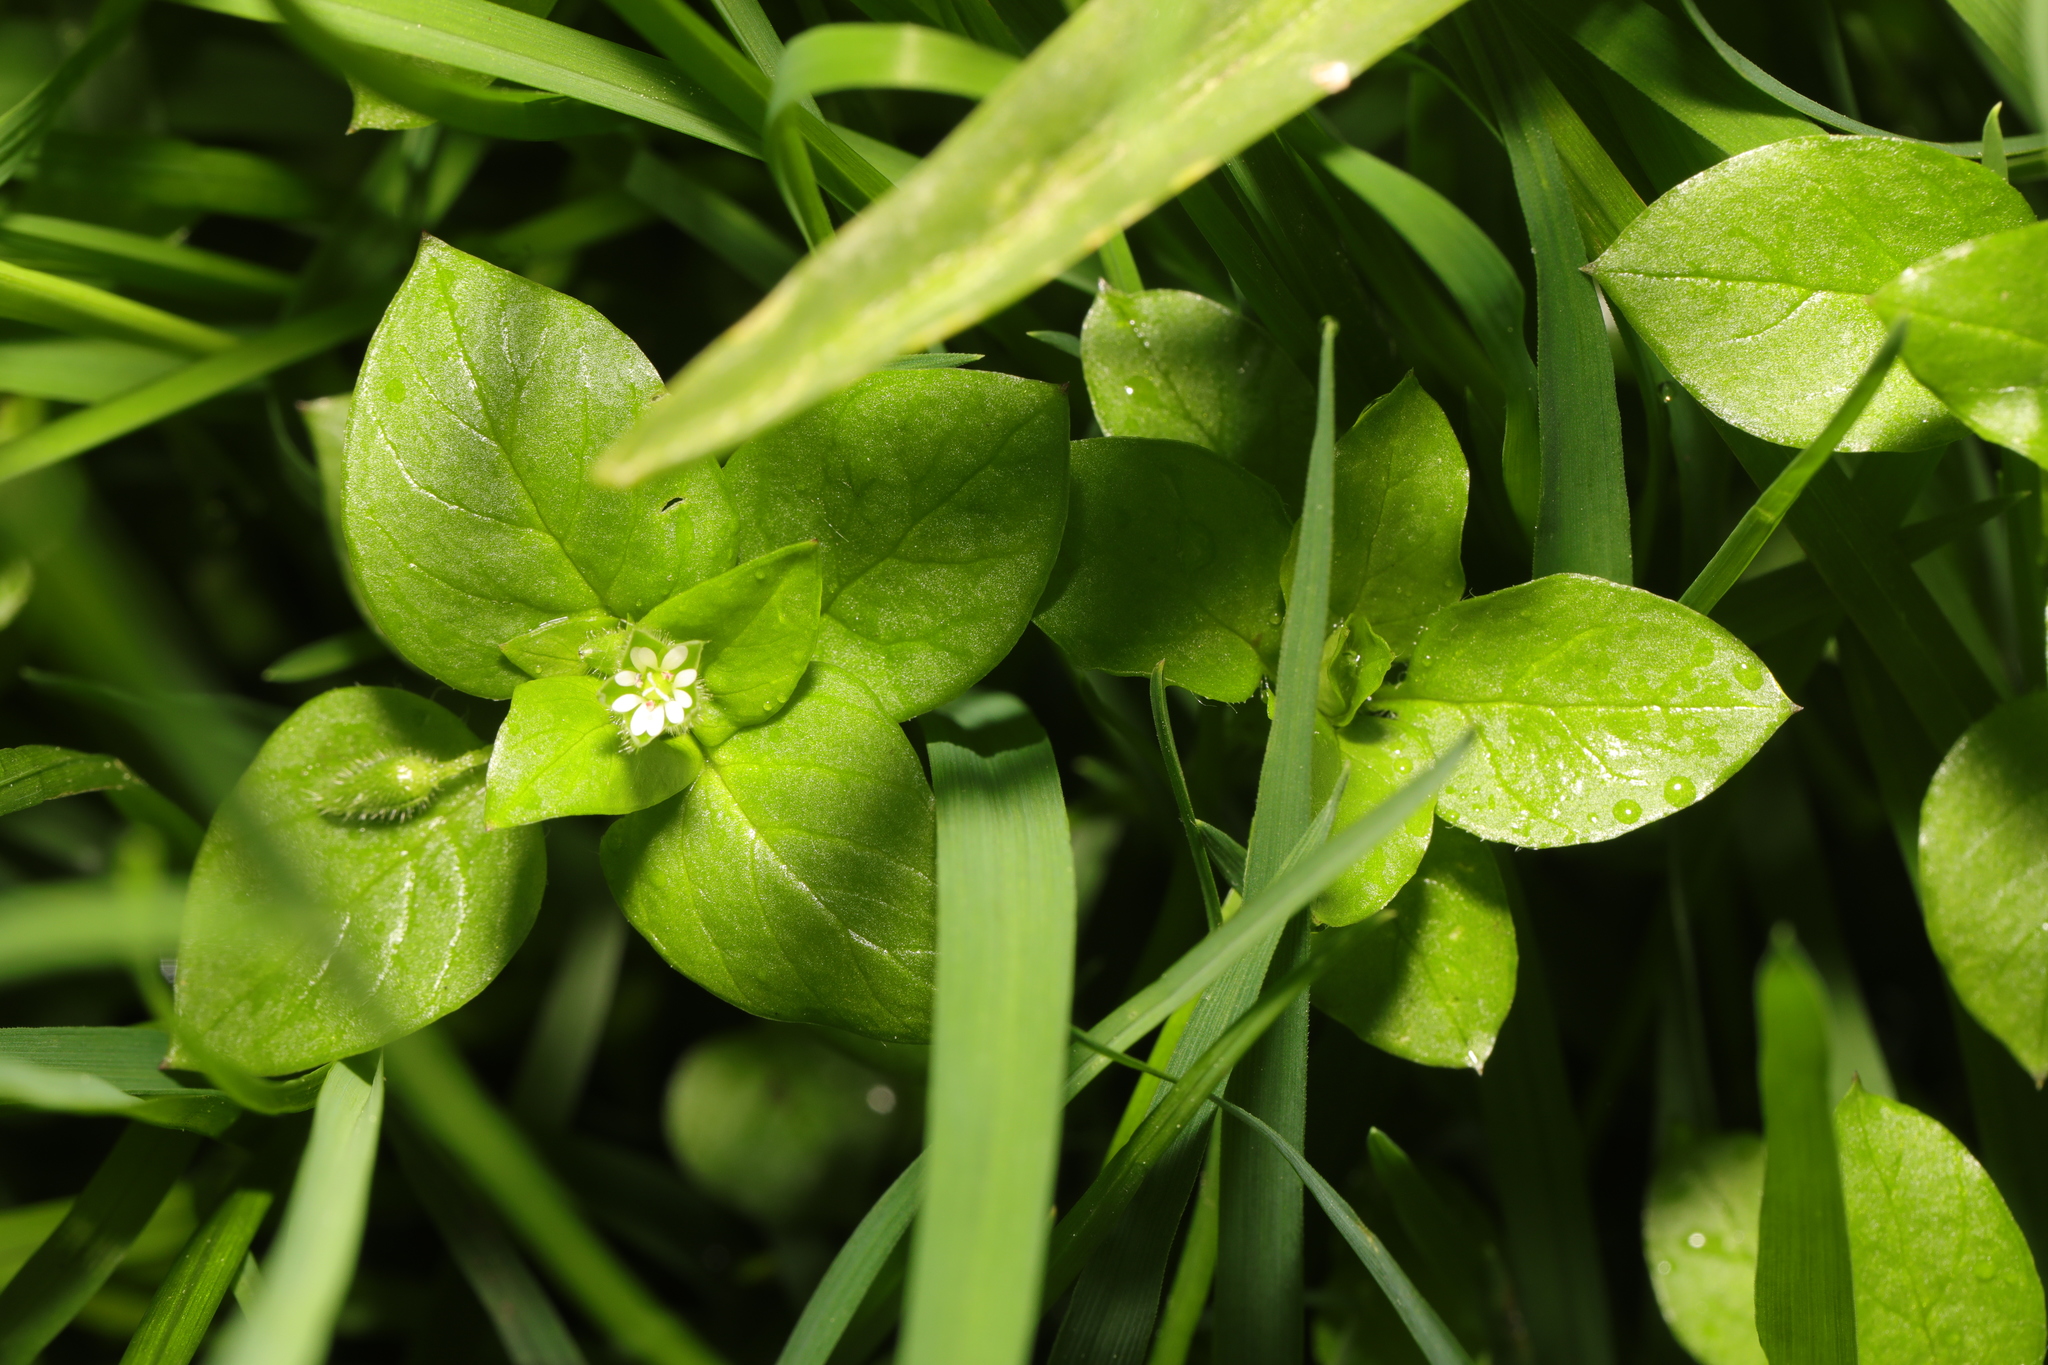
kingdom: Plantae
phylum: Tracheophyta
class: Magnoliopsida
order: Caryophyllales
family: Caryophyllaceae
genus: Stellaria
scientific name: Stellaria media
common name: Common chickweed
